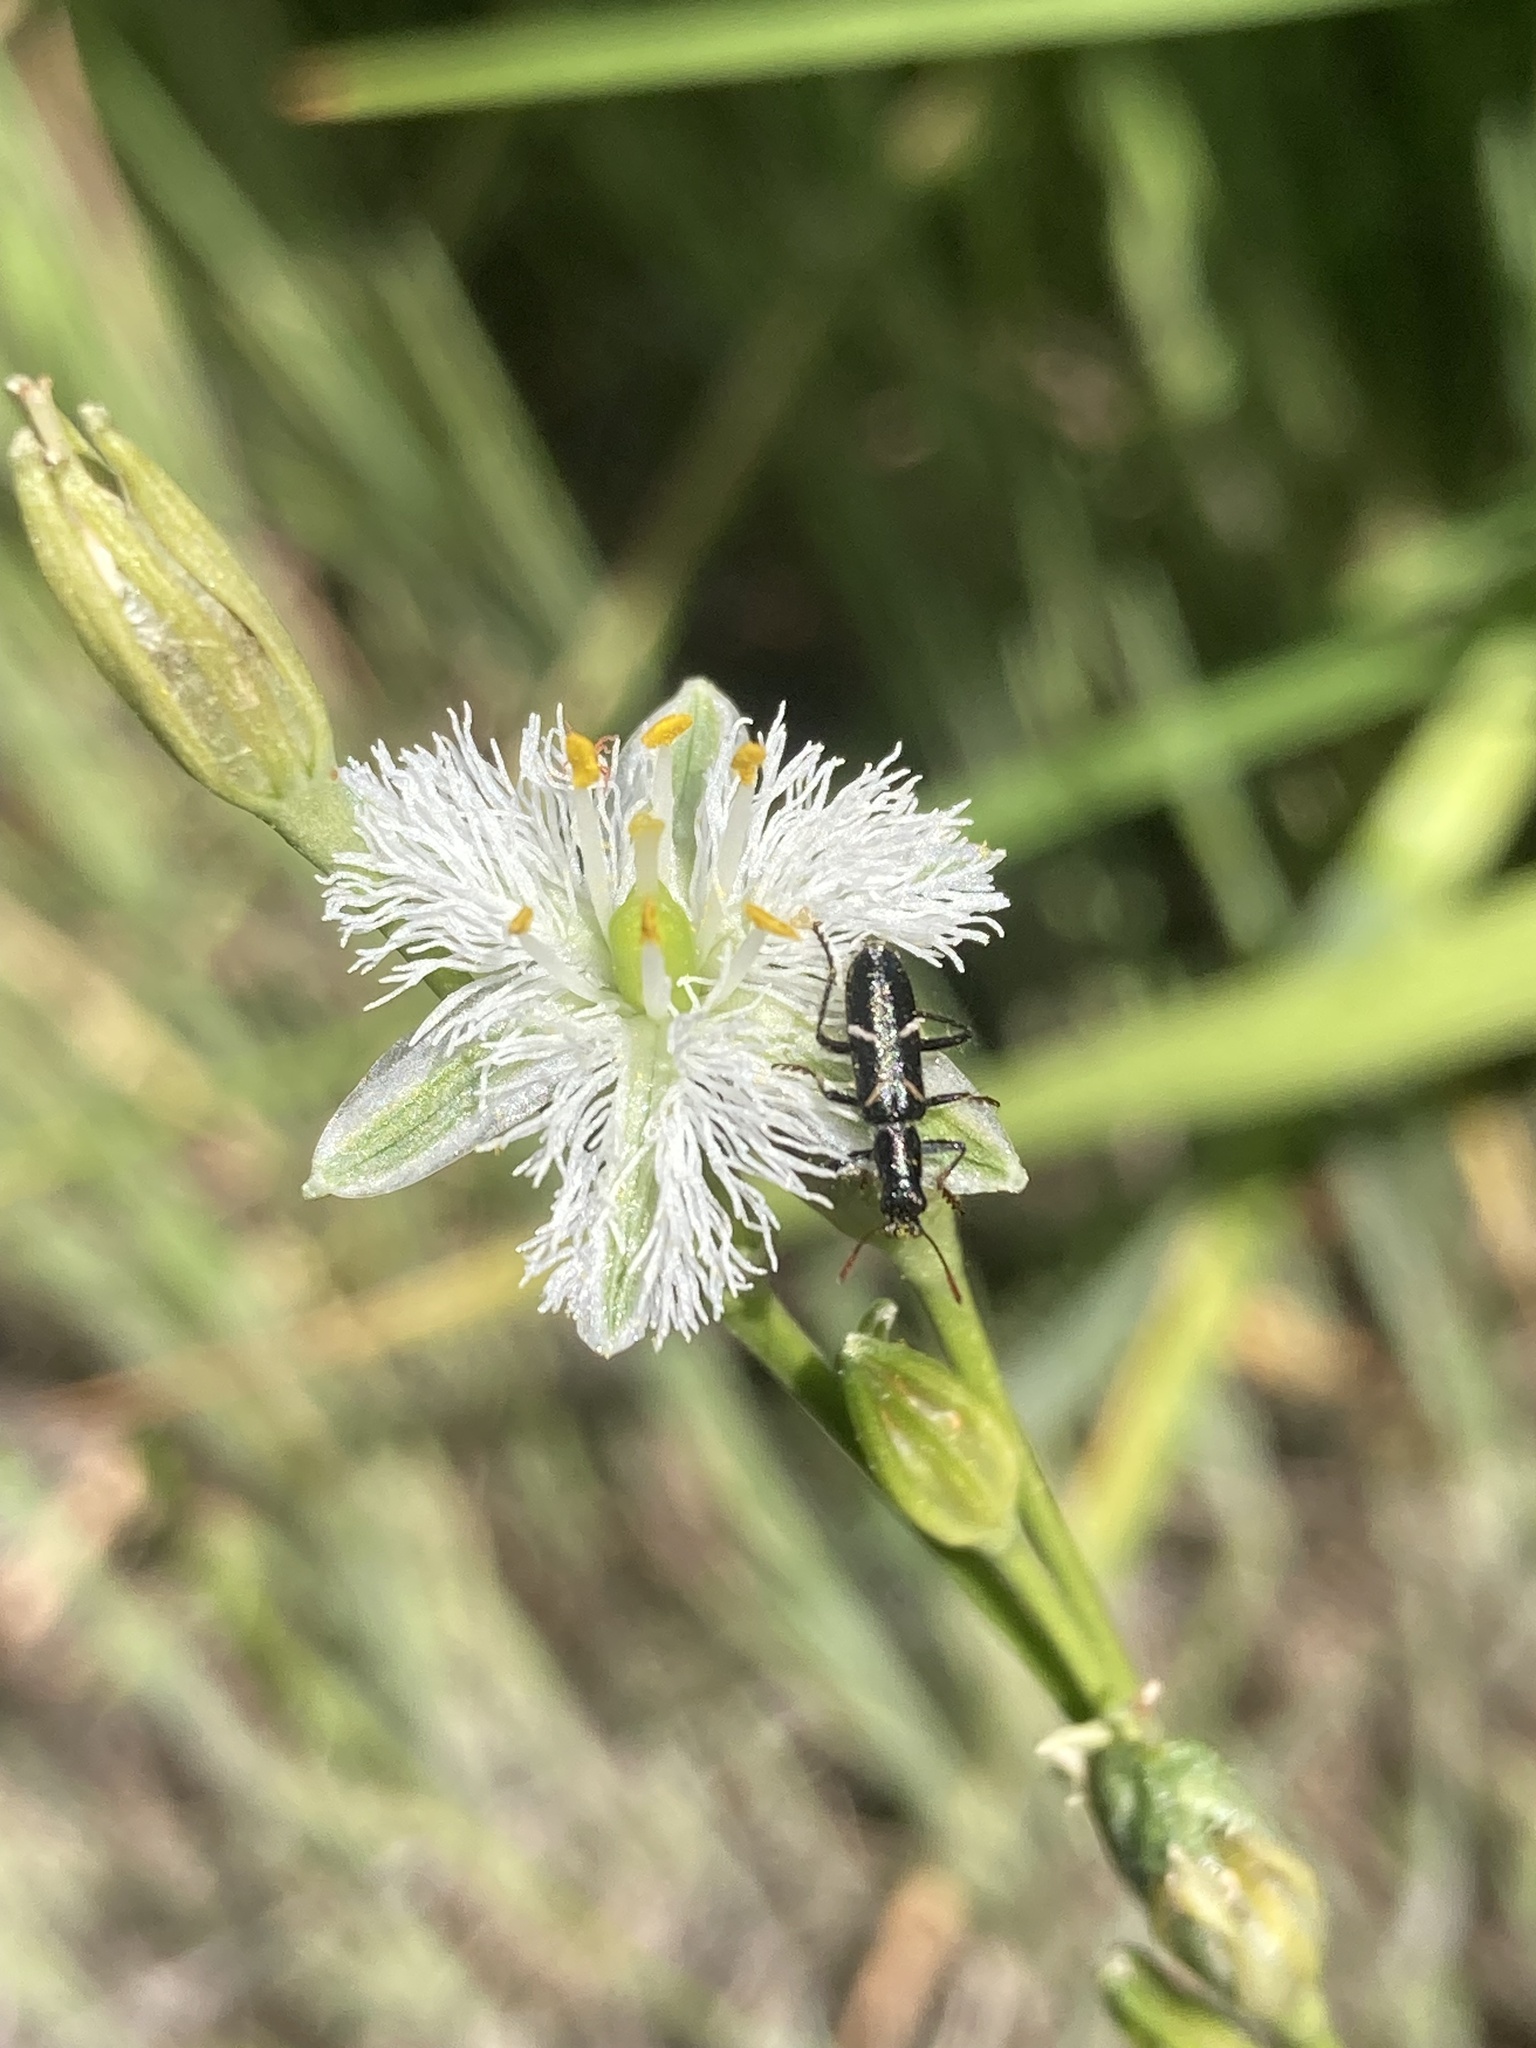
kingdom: Plantae
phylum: Tracheophyta
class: Liliopsida
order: Asparagales
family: Asparagaceae
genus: Trichopetalum
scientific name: Trichopetalum plumosum
